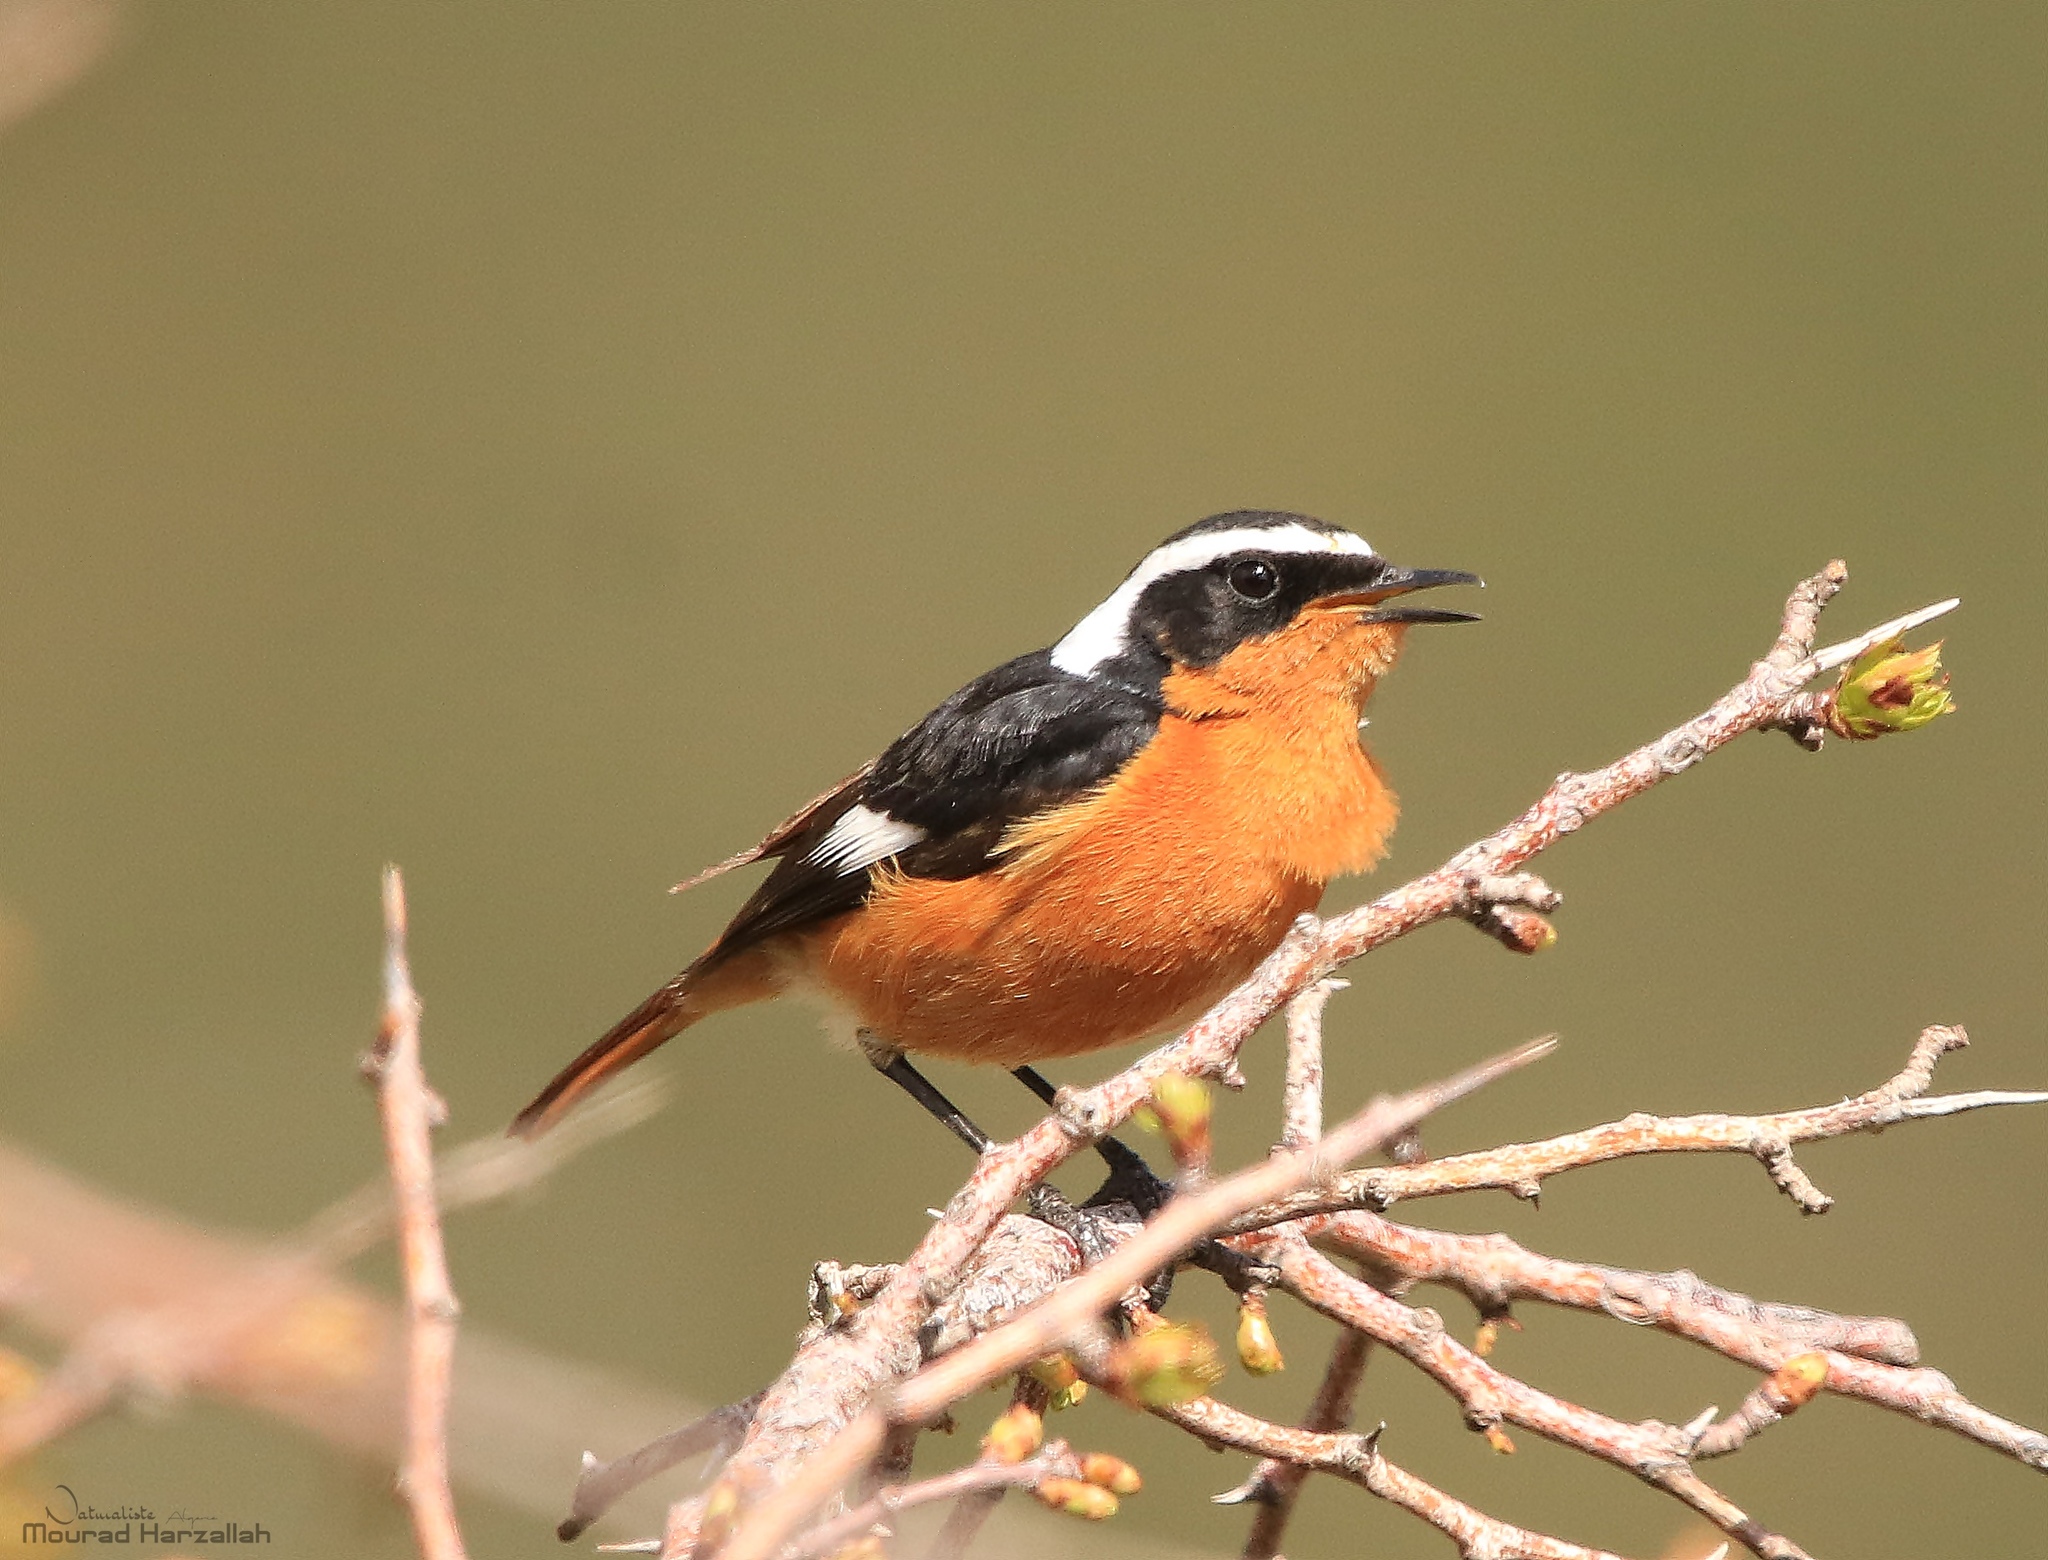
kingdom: Animalia
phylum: Chordata
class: Aves
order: Passeriformes
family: Muscicapidae
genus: Phoenicurus
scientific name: Phoenicurus moussieri
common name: Moussier's redstart
